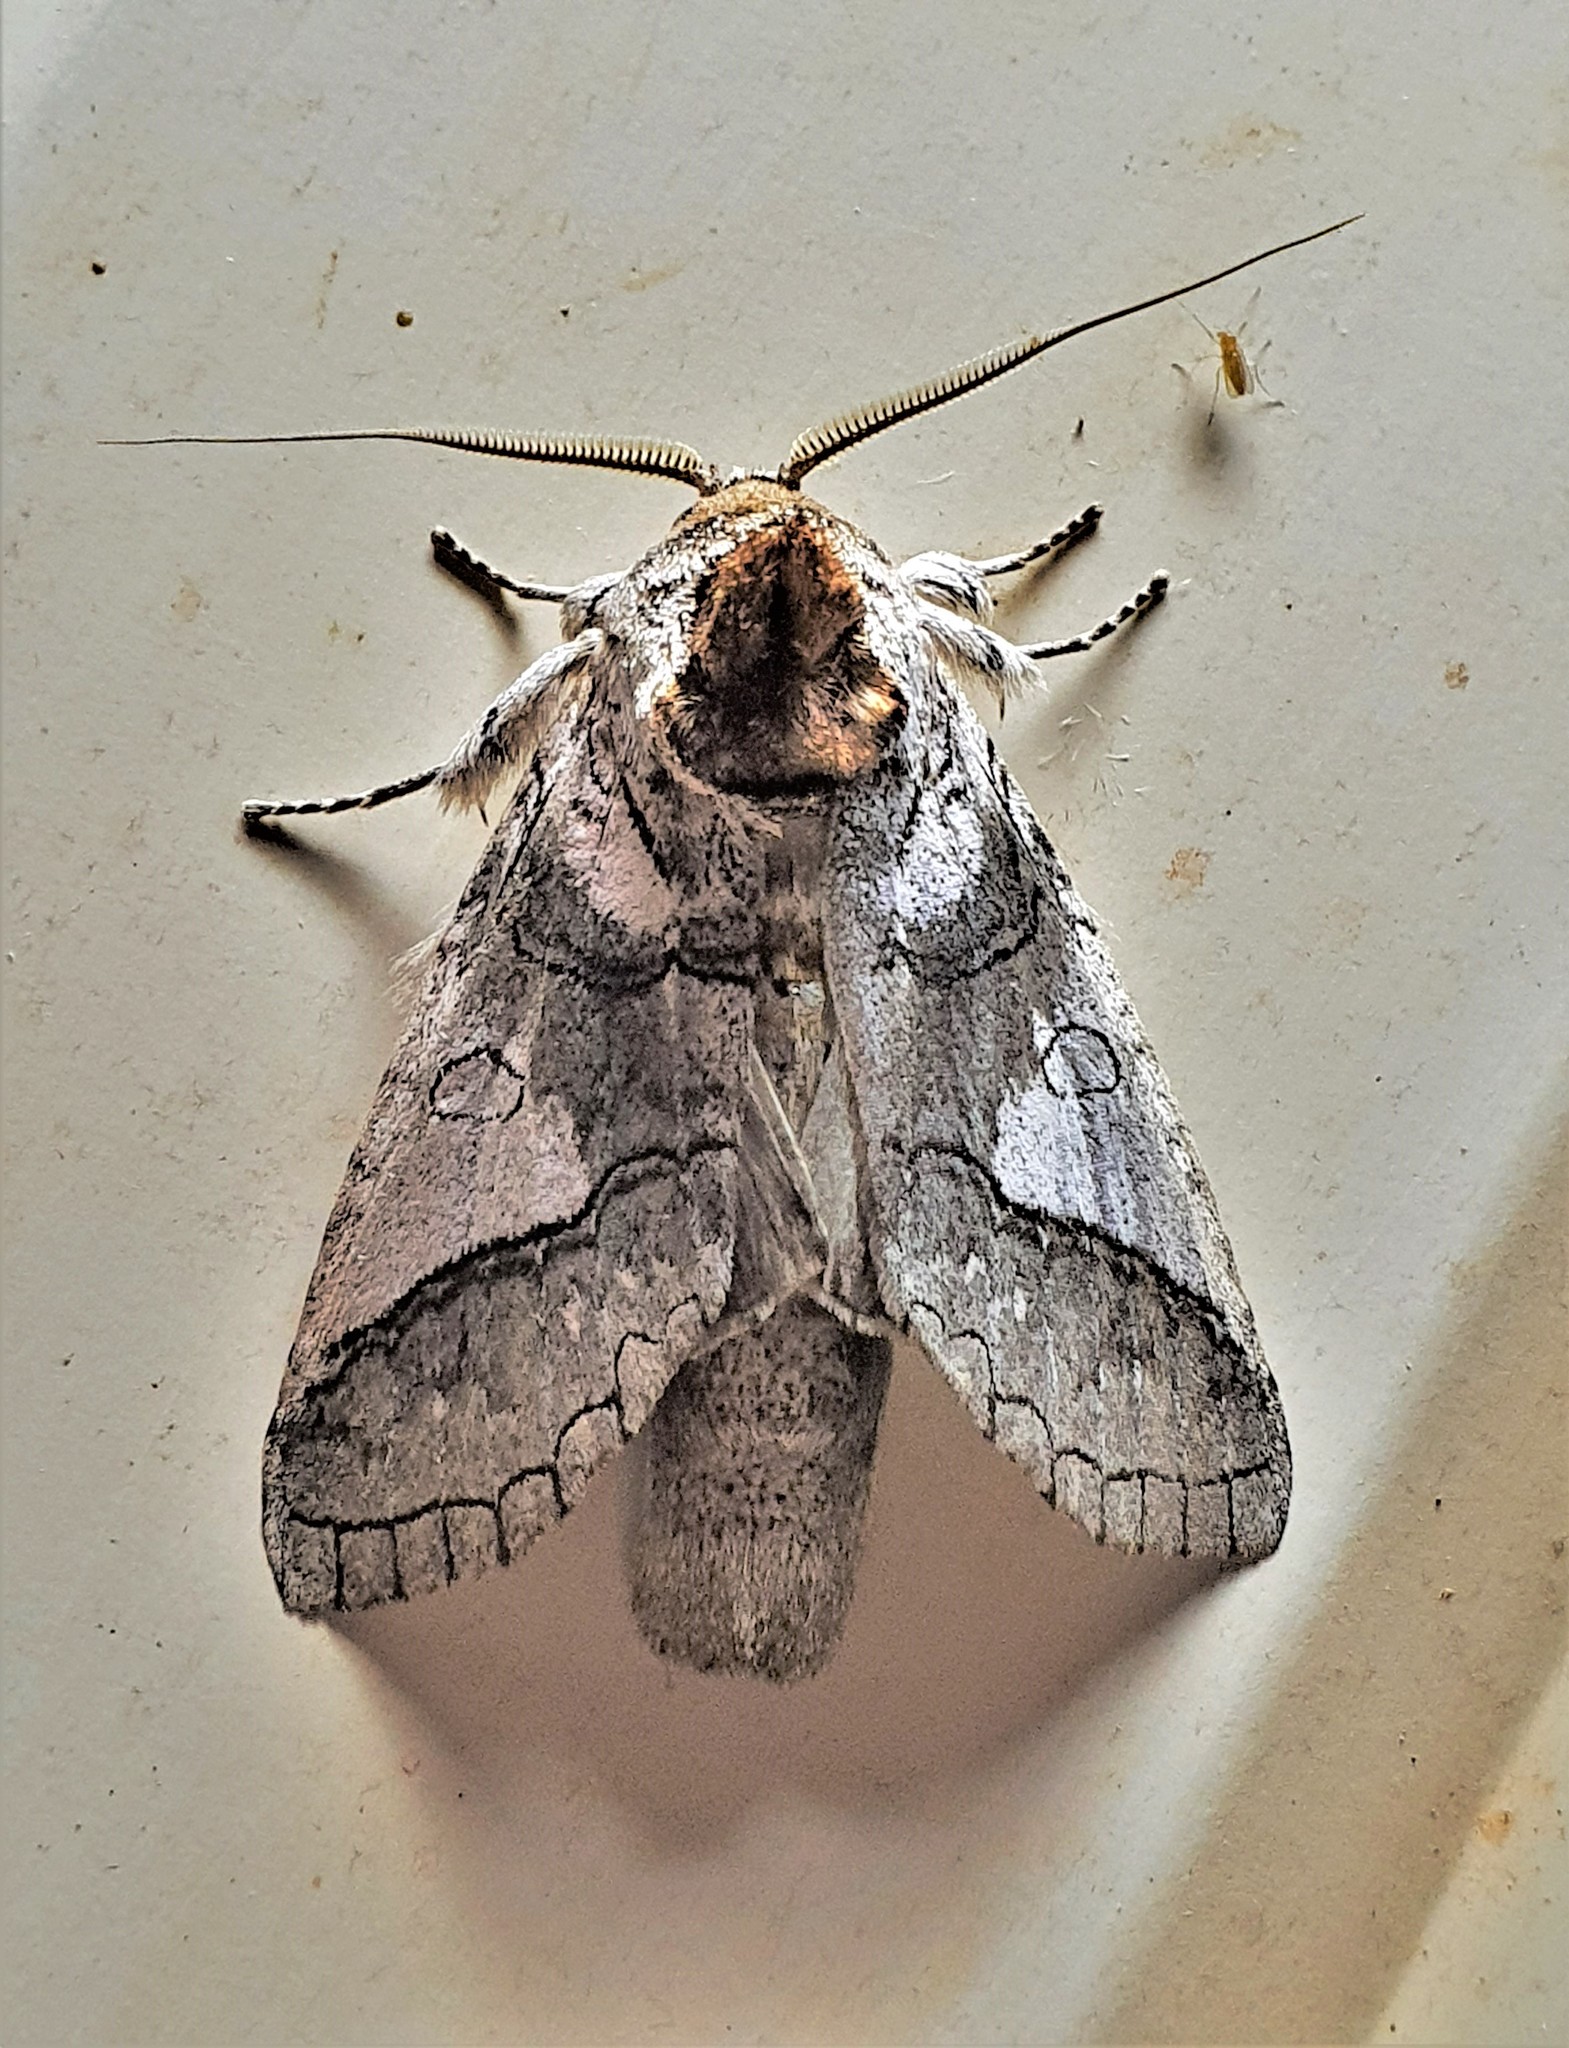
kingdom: Animalia
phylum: Arthropoda
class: Insecta
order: Lepidoptera
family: Notodontidae
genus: Rifargia
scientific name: Rifargia cinga
